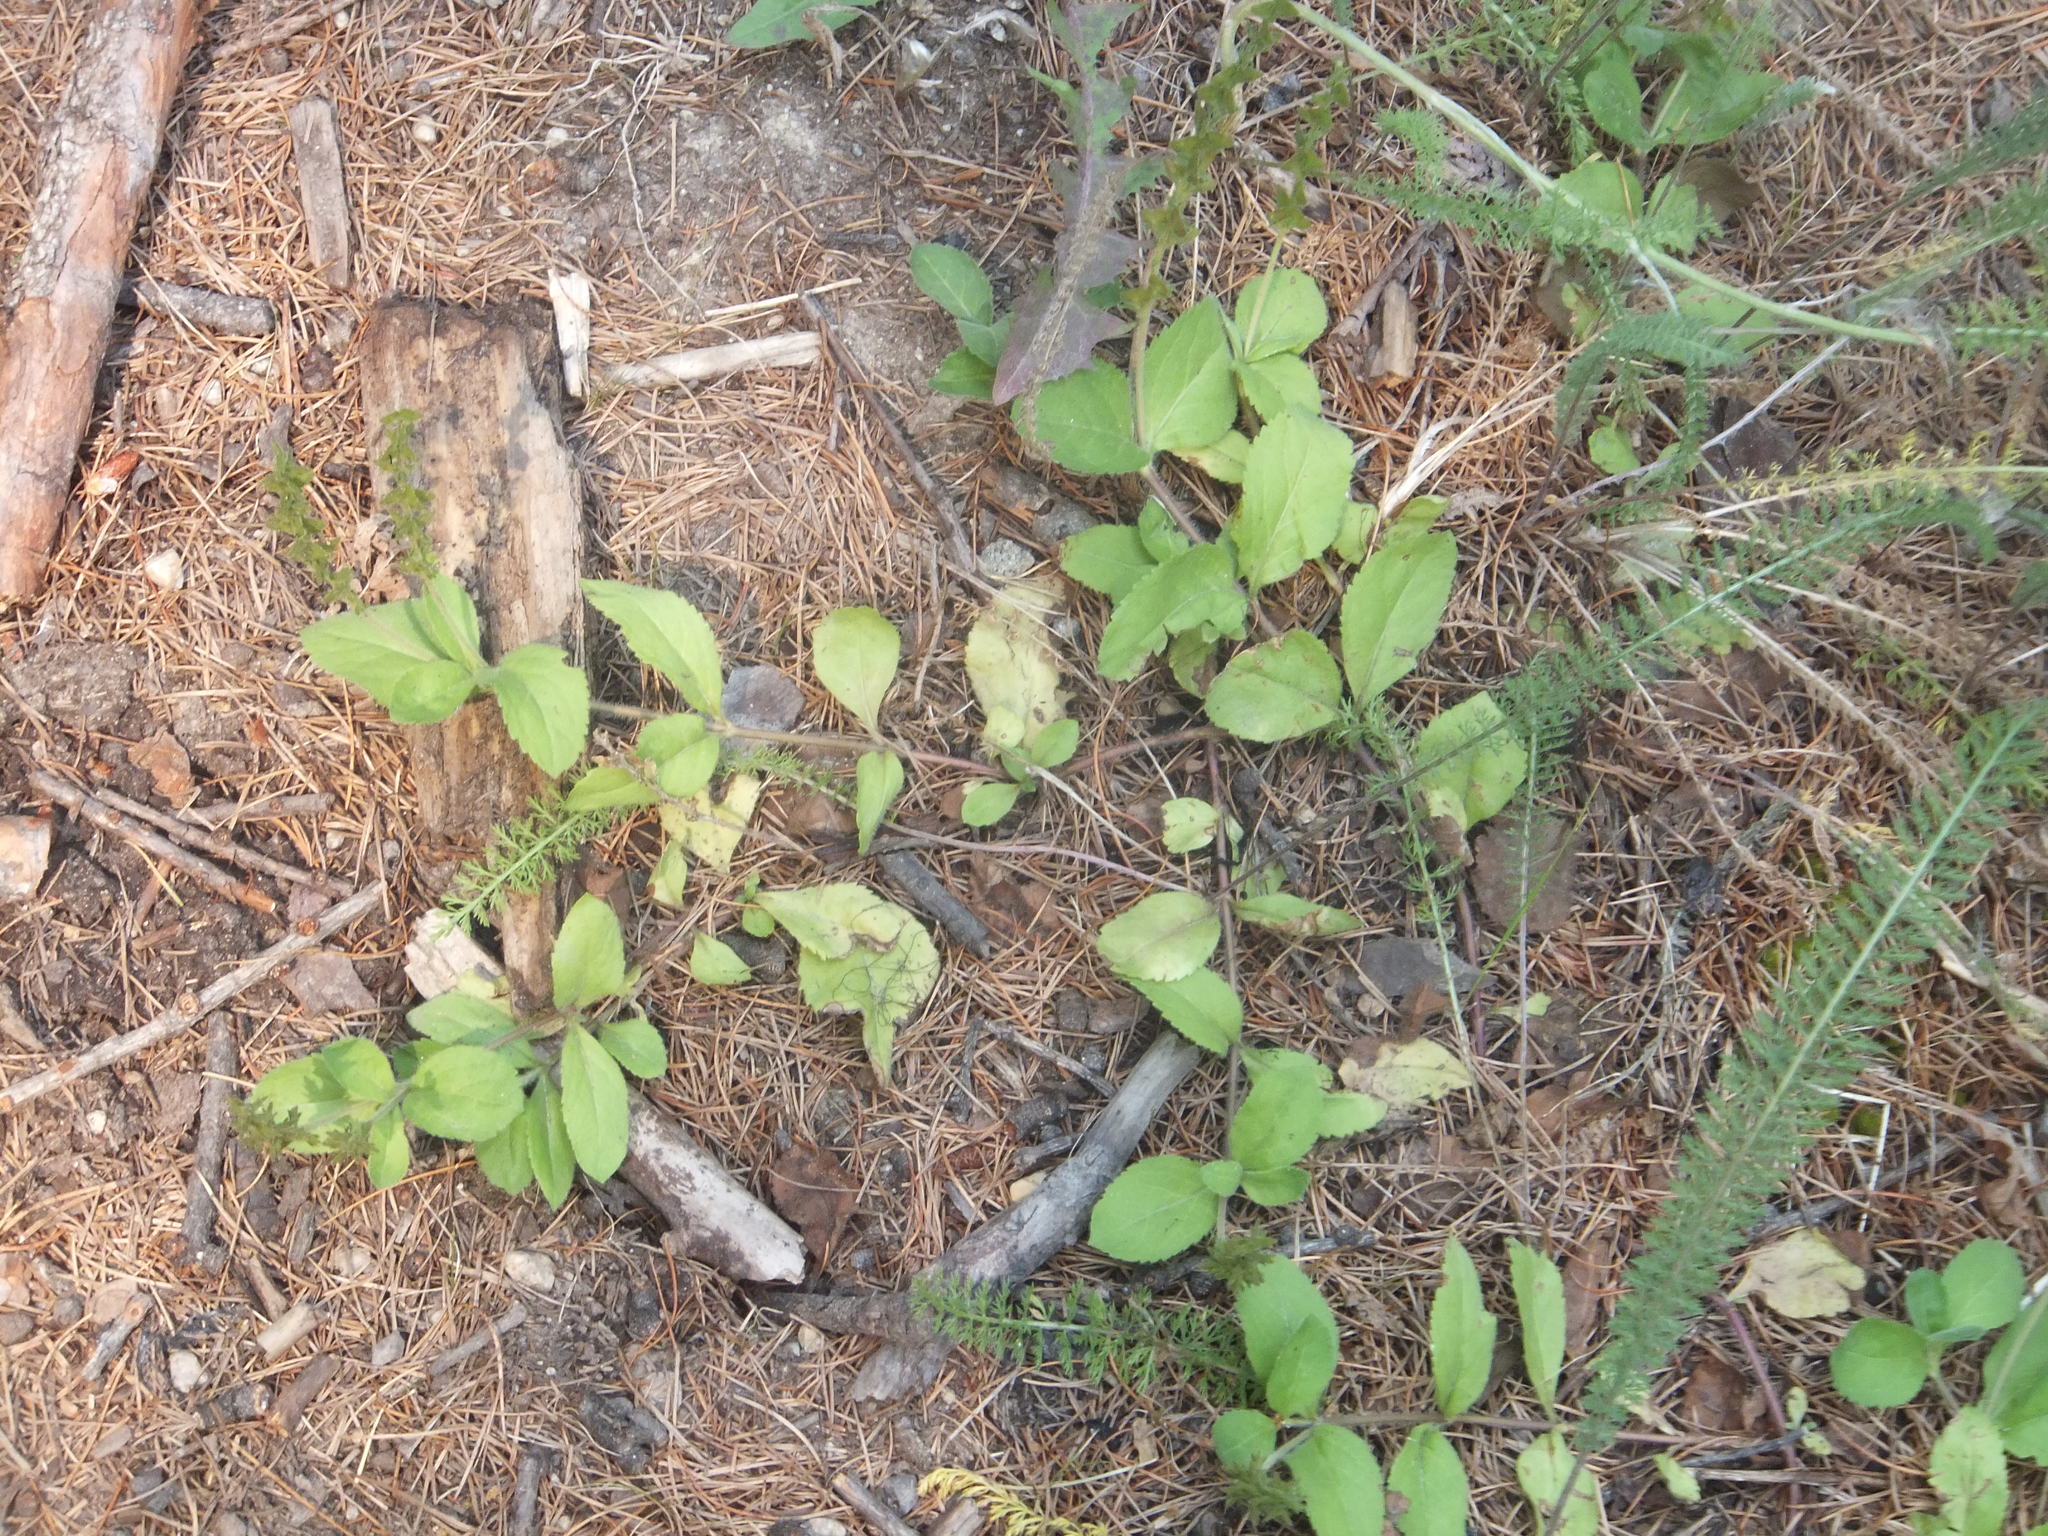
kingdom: Plantae
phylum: Tracheophyta
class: Magnoliopsida
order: Lamiales
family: Plantaginaceae
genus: Veronica
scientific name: Veronica officinalis
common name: Common speedwell
